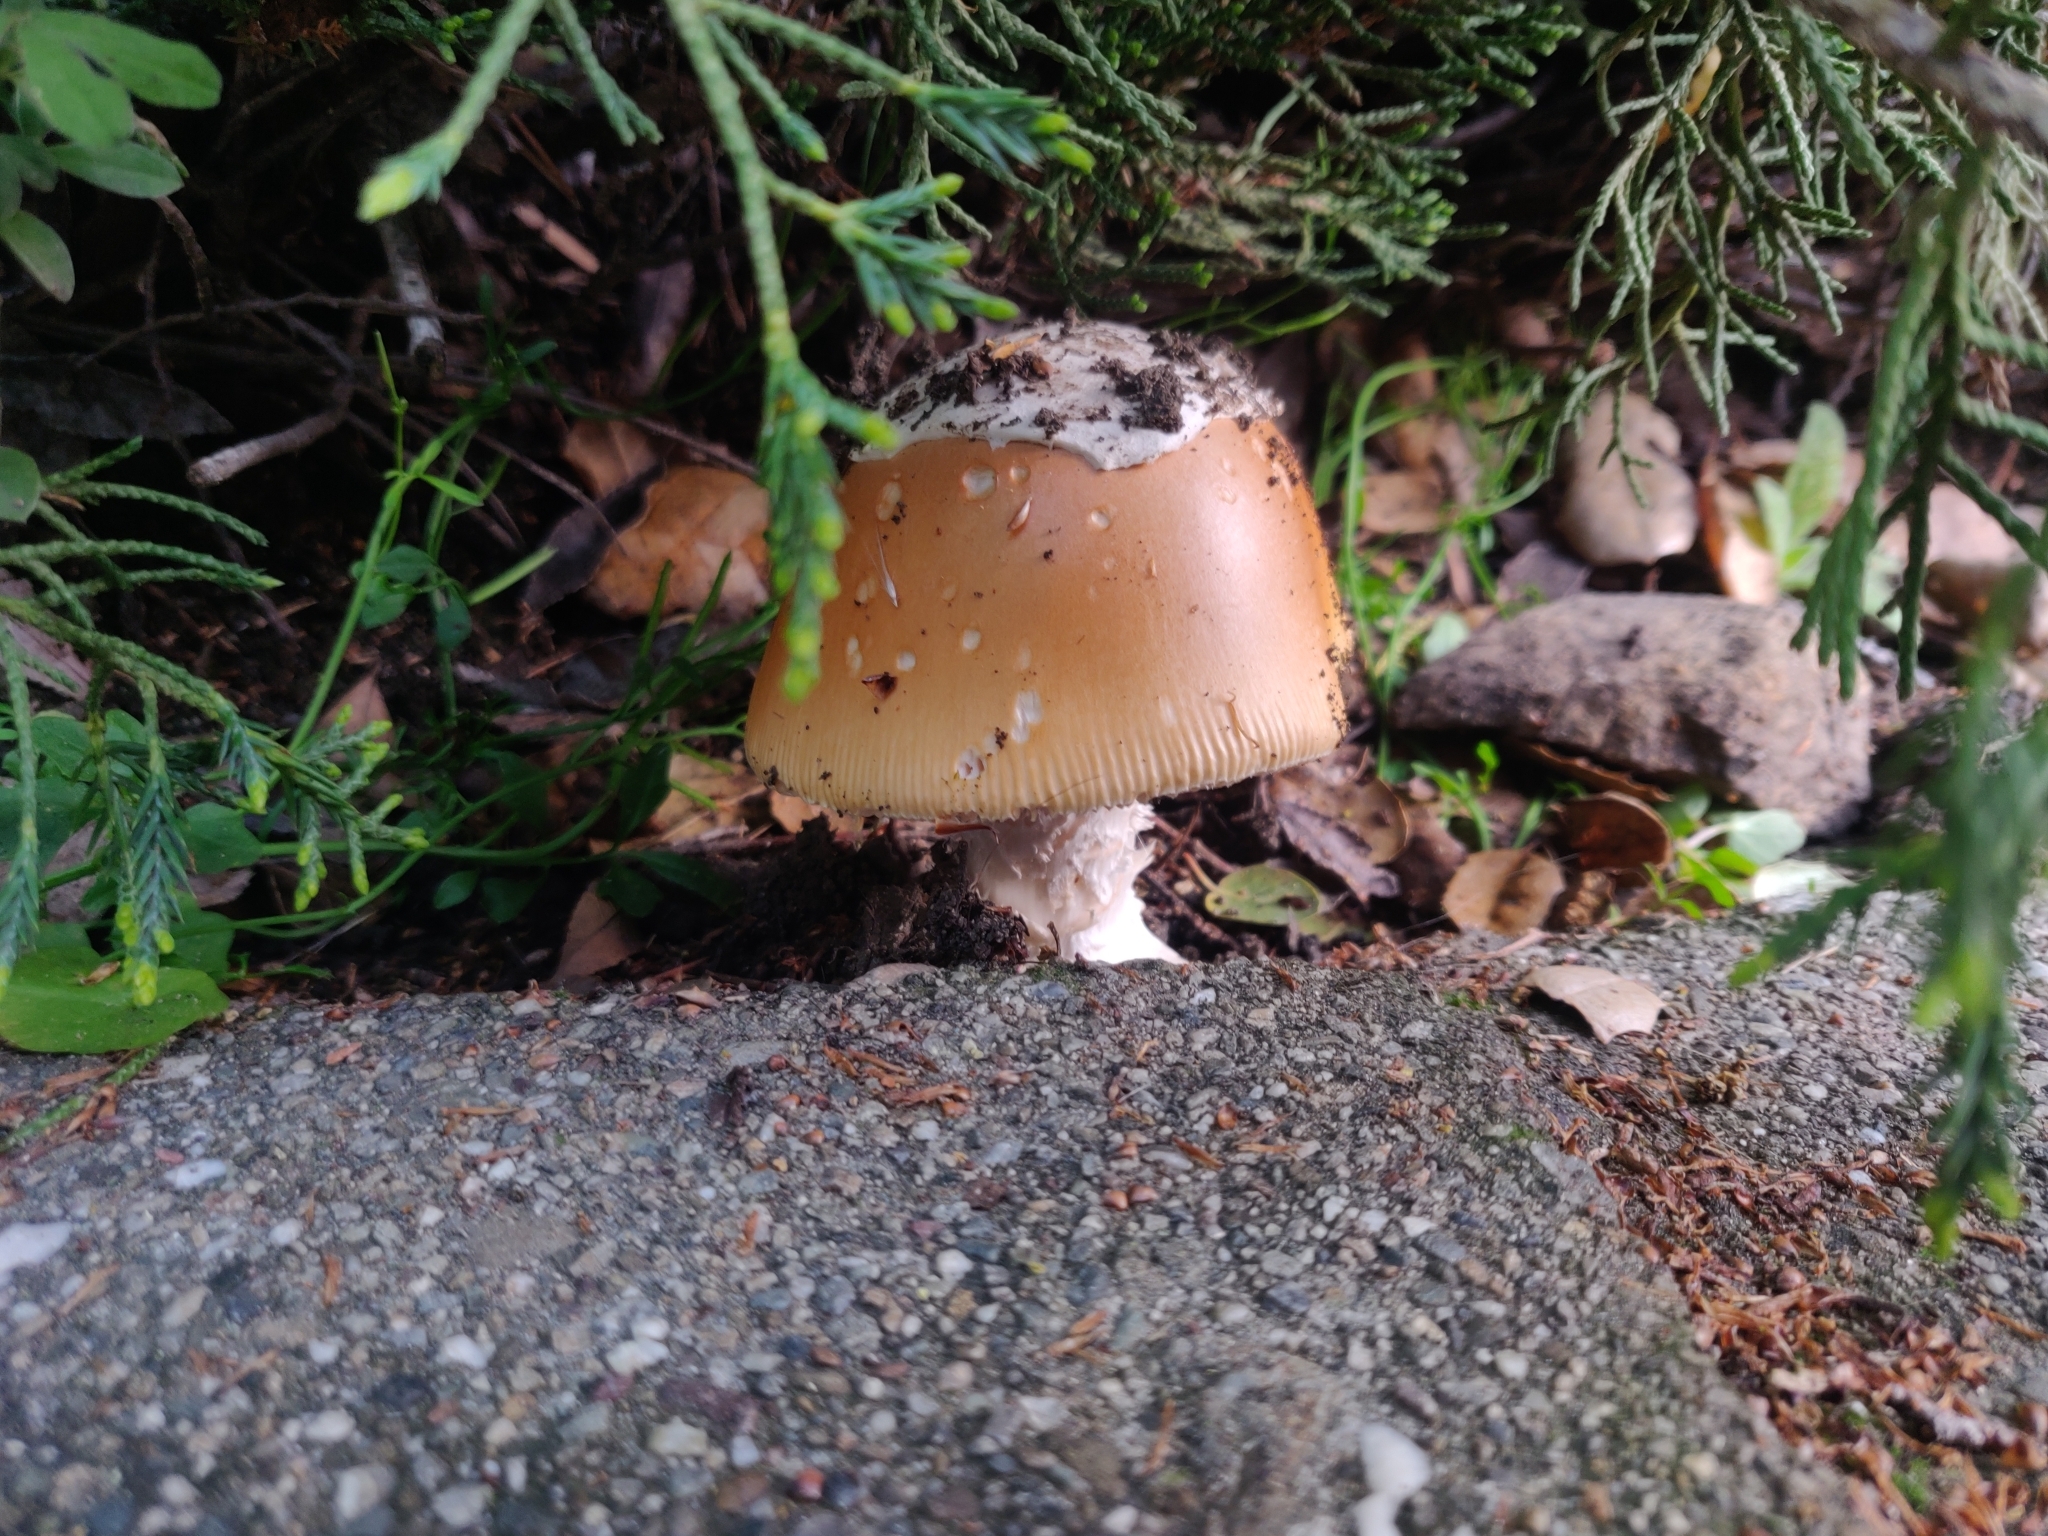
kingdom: Fungi
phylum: Basidiomycota
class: Agaricomycetes
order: Agaricales
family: Amanitaceae
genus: Amanita
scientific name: Amanita velosa
